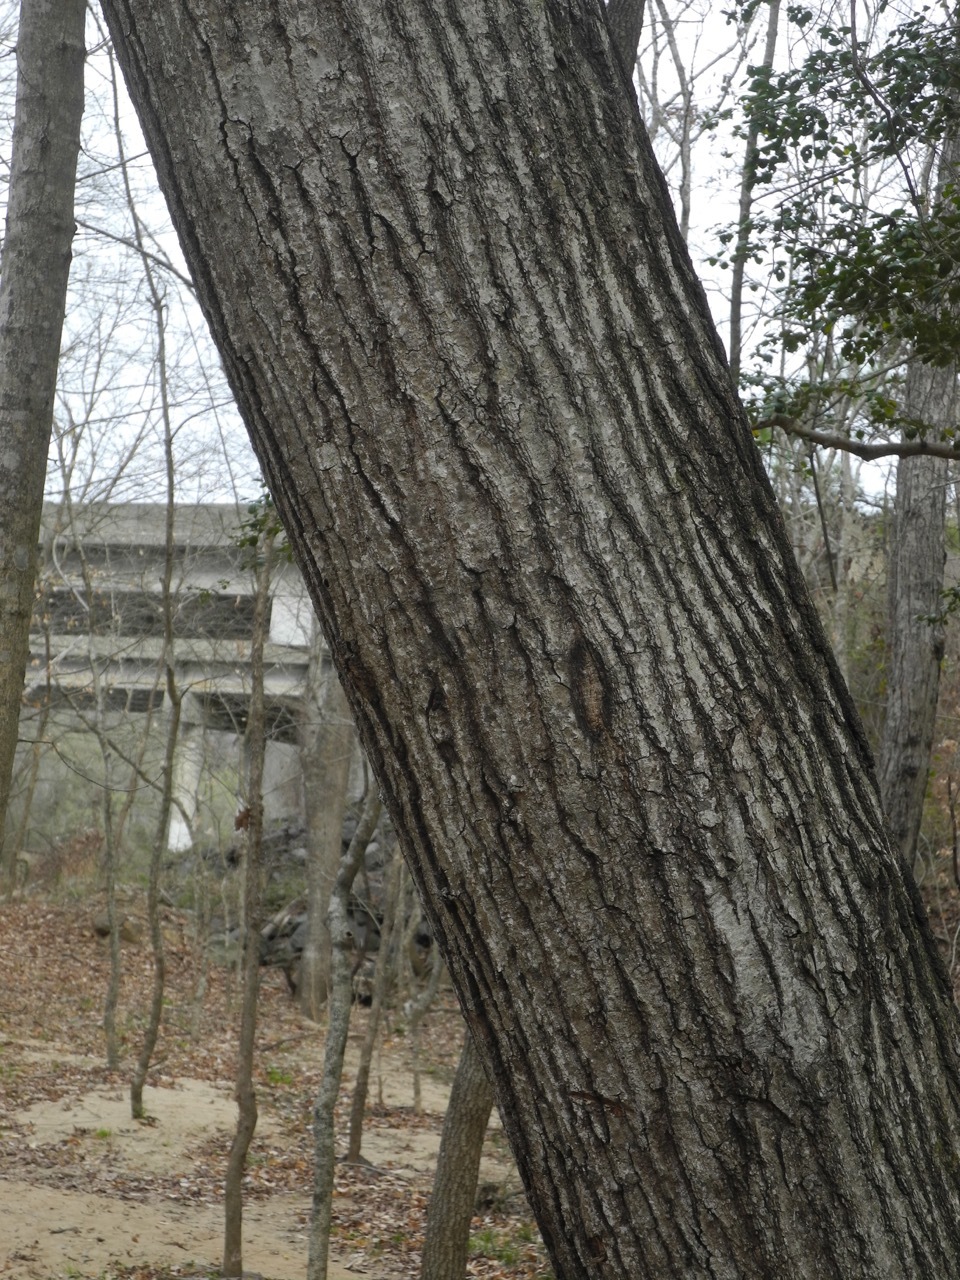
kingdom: Plantae
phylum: Tracheophyta
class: Magnoliopsida
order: Fagales
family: Fagaceae
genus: Quercus
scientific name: Quercus rubra
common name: Red oak
